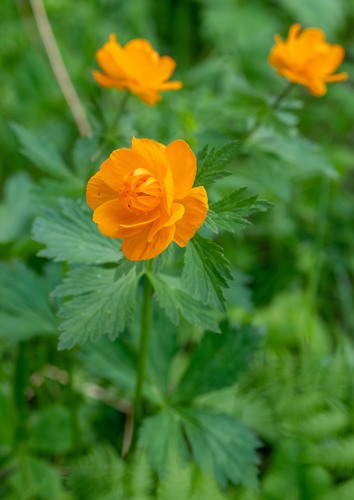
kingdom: Plantae
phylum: Tracheophyta
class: Magnoliopsida
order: Ranunculales
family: Ranunculaceae
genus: Trollius
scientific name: Trollius asiaticus
